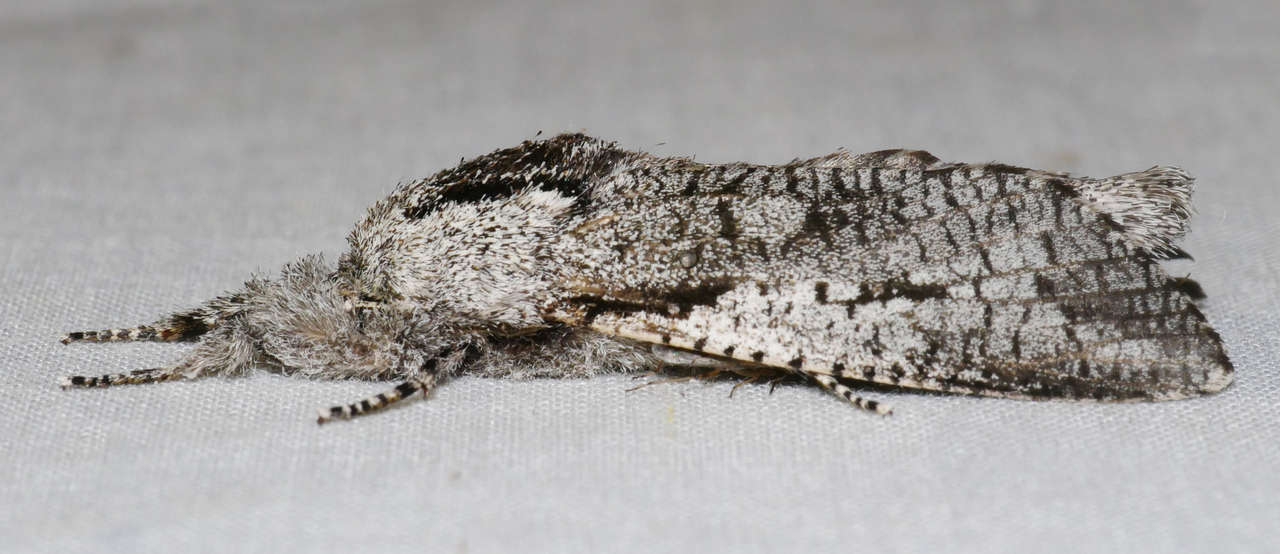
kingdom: Animalia
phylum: Arthropoda
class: Insecta
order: Lepidoptera
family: Cossidae
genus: Endoxyla
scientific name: Endoxyla secta
